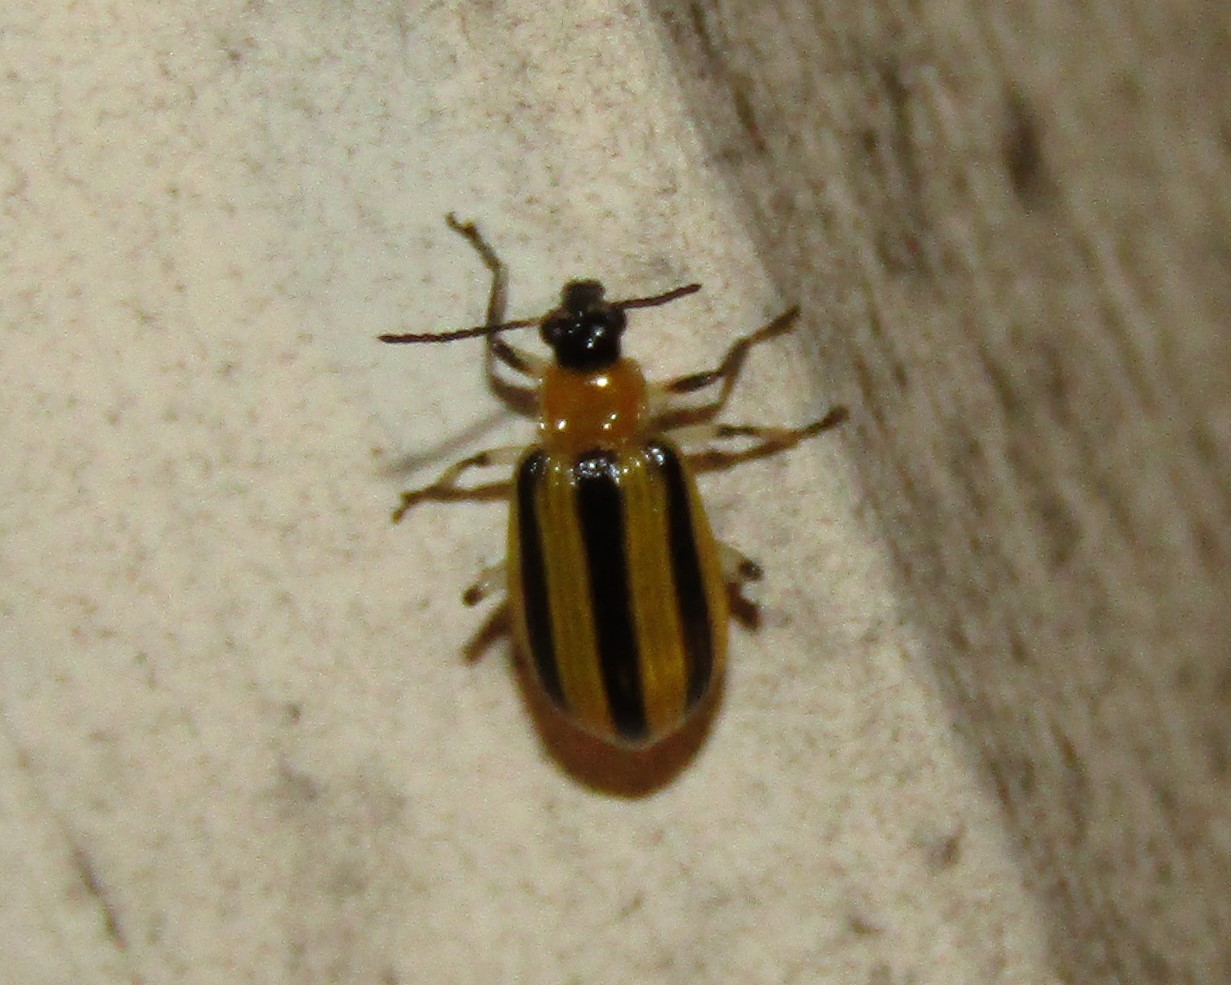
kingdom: Animalia
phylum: Arthropoda
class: Insecta
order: Coleoptera
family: Chrysomelidae
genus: Acalymma
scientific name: Acalymma vittatum
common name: Striped cucumber beetle
